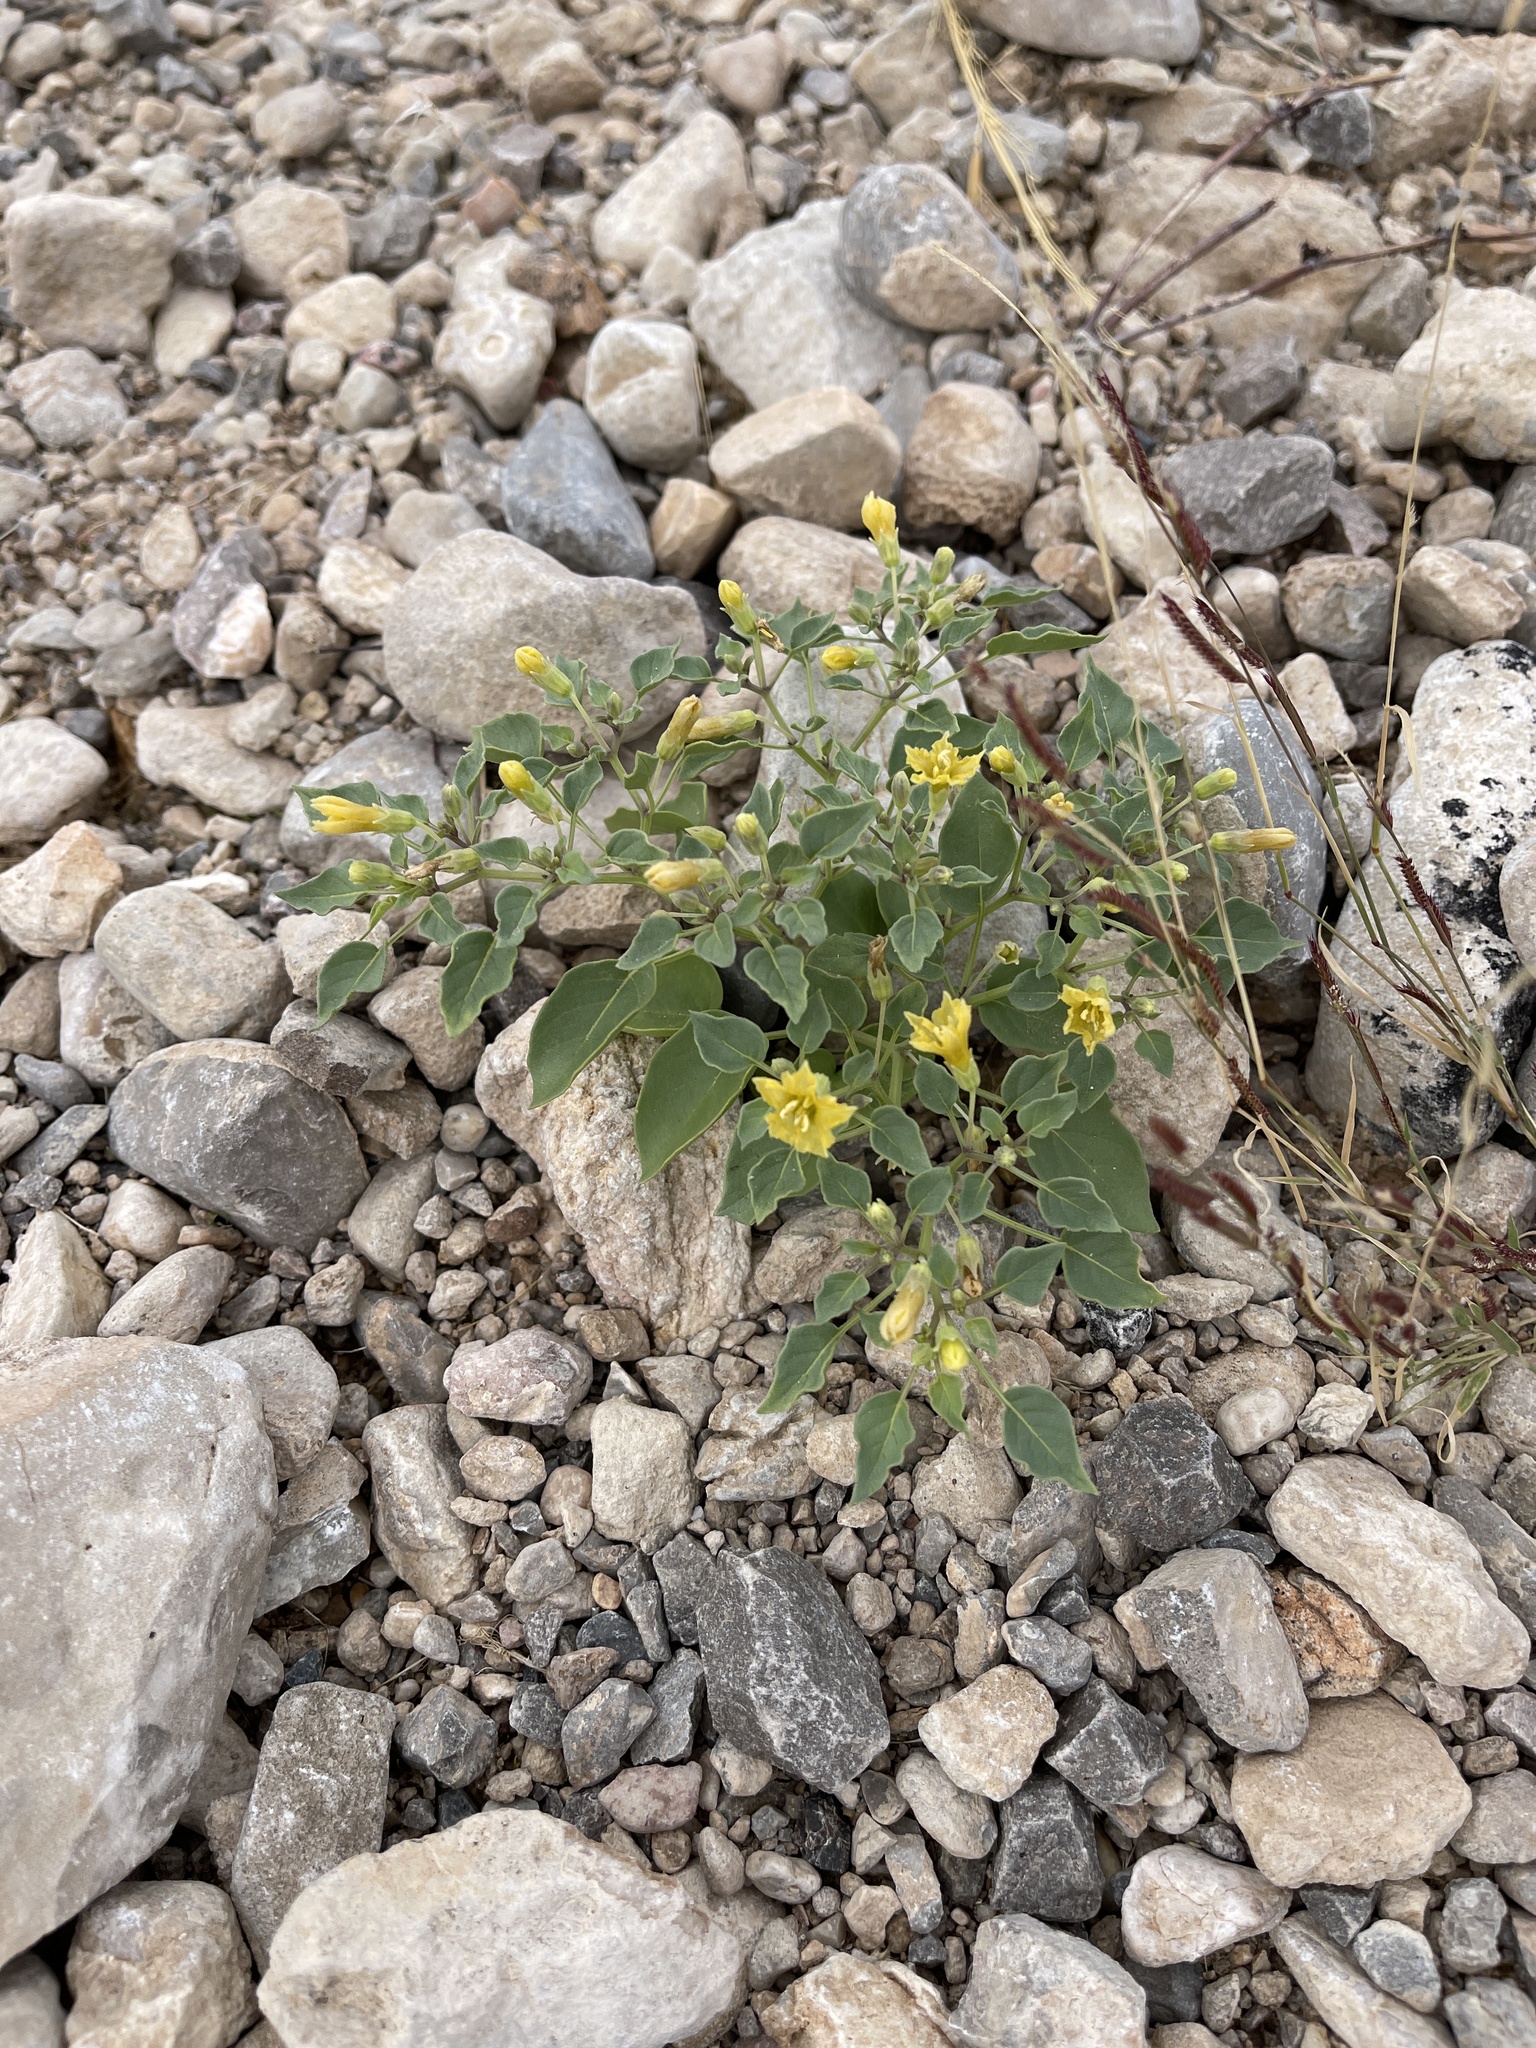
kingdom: Plantae
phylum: Tracheophyta
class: Magnoliopsida
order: Solanales
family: Solanaceae
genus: Physalis
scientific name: Physalis crassifolia
